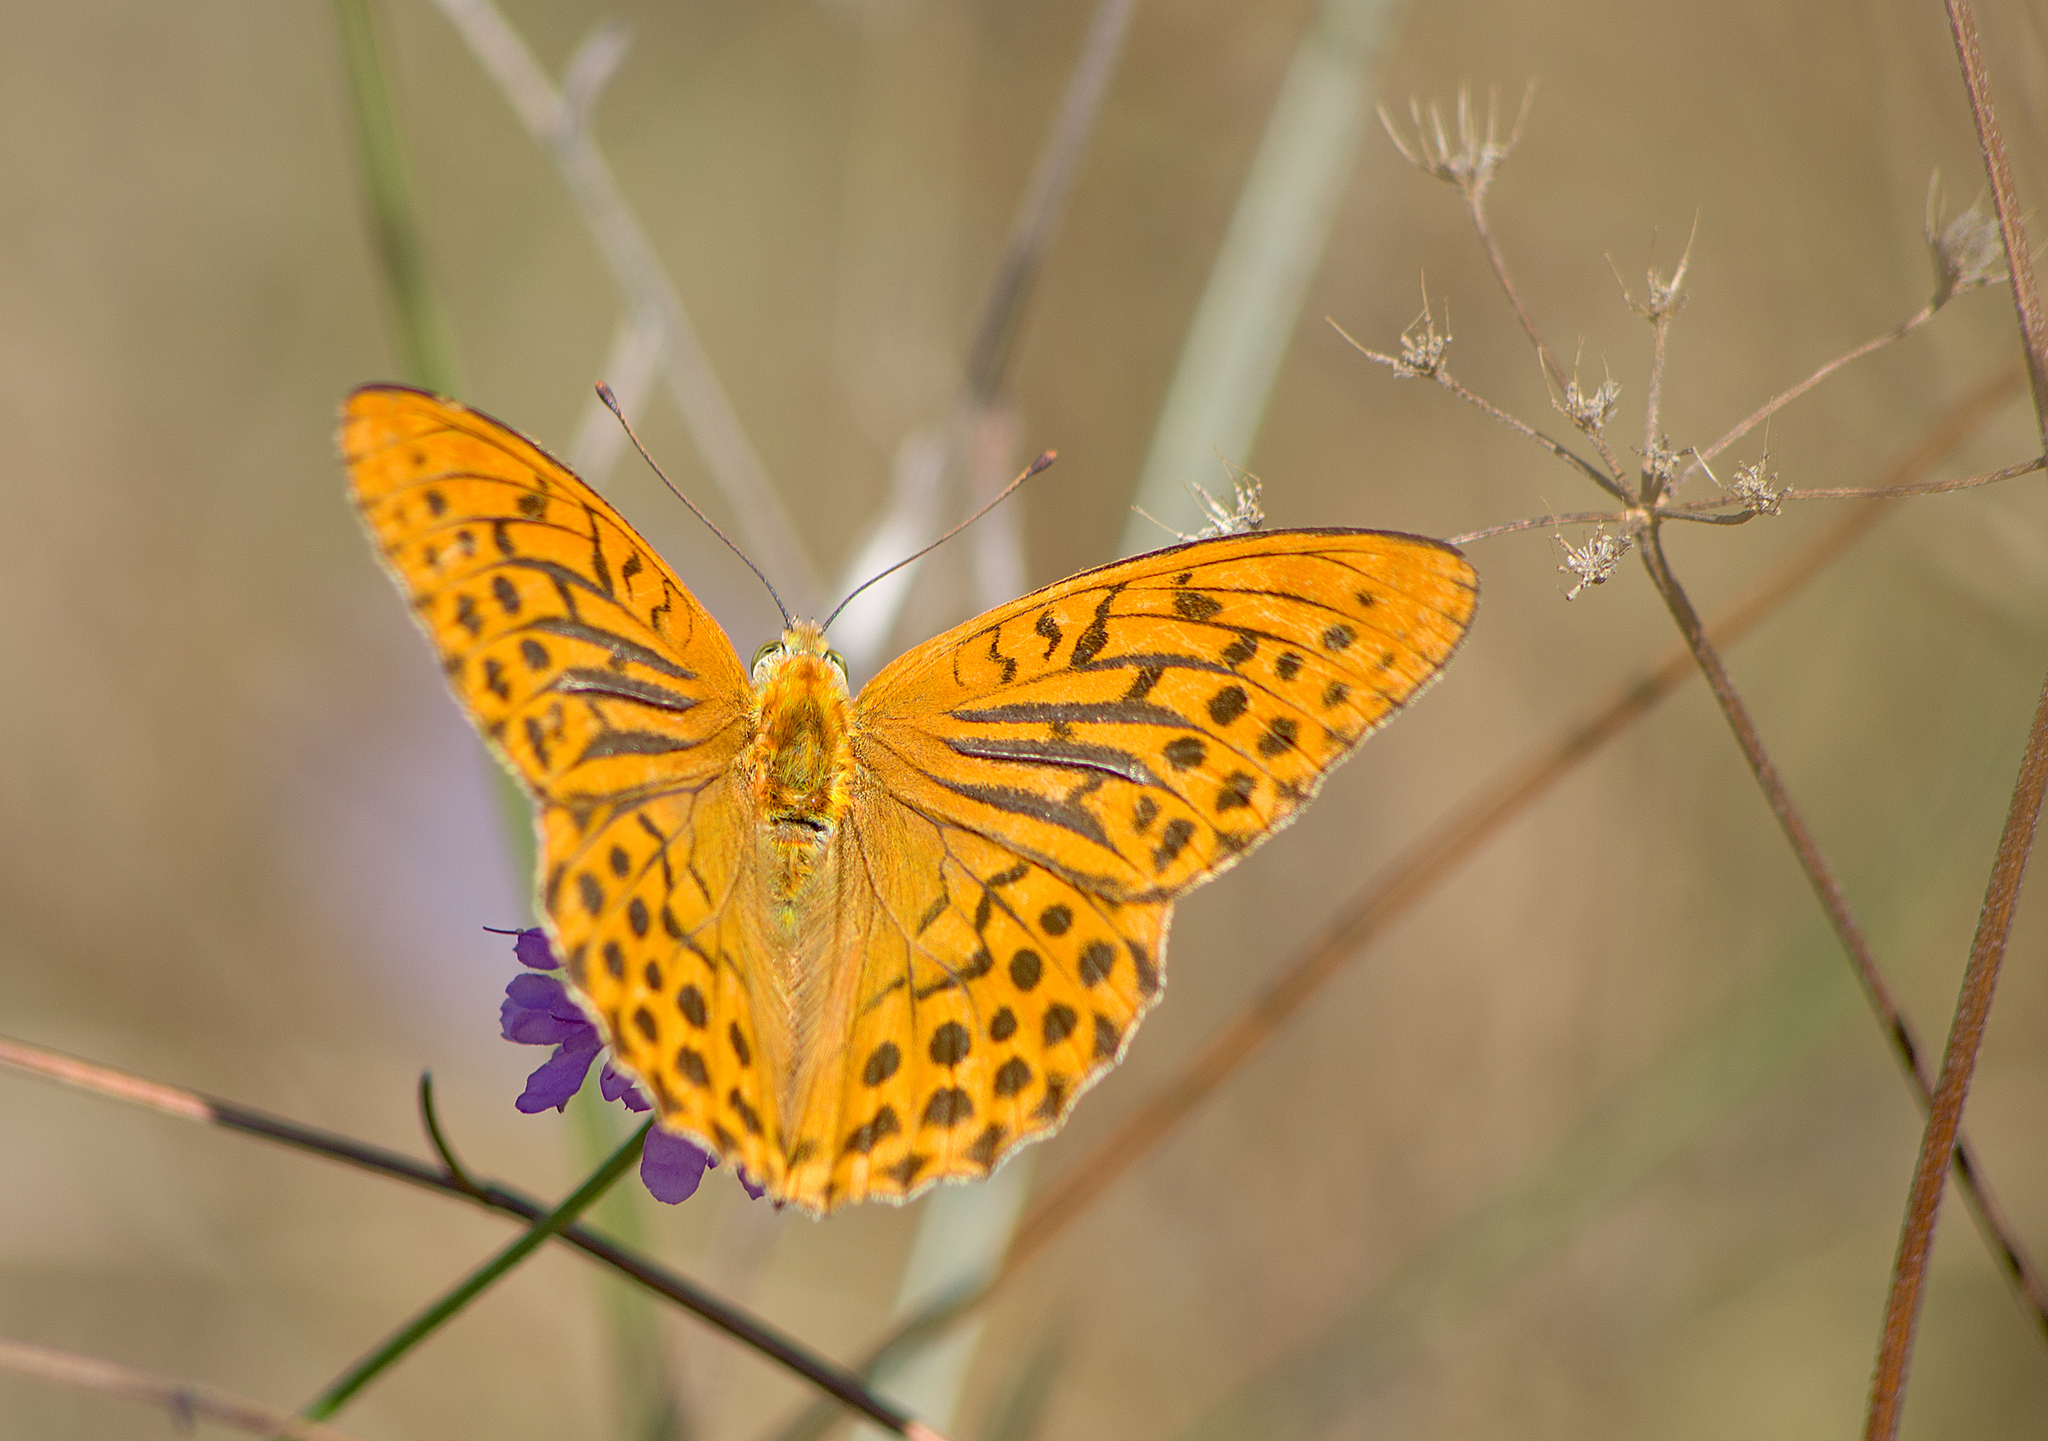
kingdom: Animalia
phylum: Arthropoda
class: Insecta
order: Lepidoptera
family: Nymphalidae
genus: Argynnis
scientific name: Argynnis paphia
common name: Silver-washed fritillary
